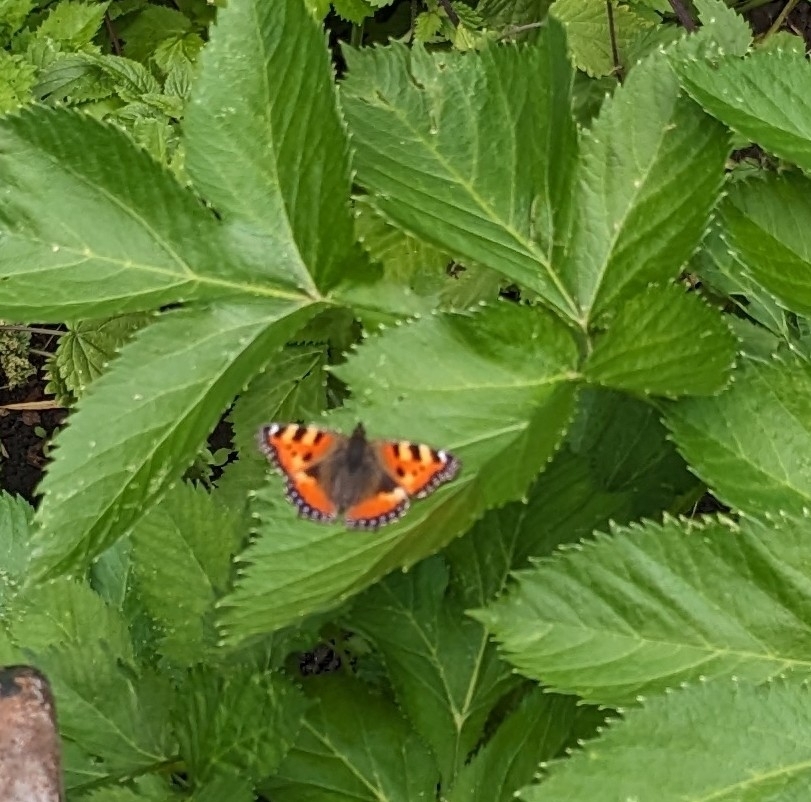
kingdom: Animalia
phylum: Arthropoda
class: Insecta
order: Lepidoptera
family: Nymphalidae
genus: Aglais
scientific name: Aglais urticae
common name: Small tortoiseshell
